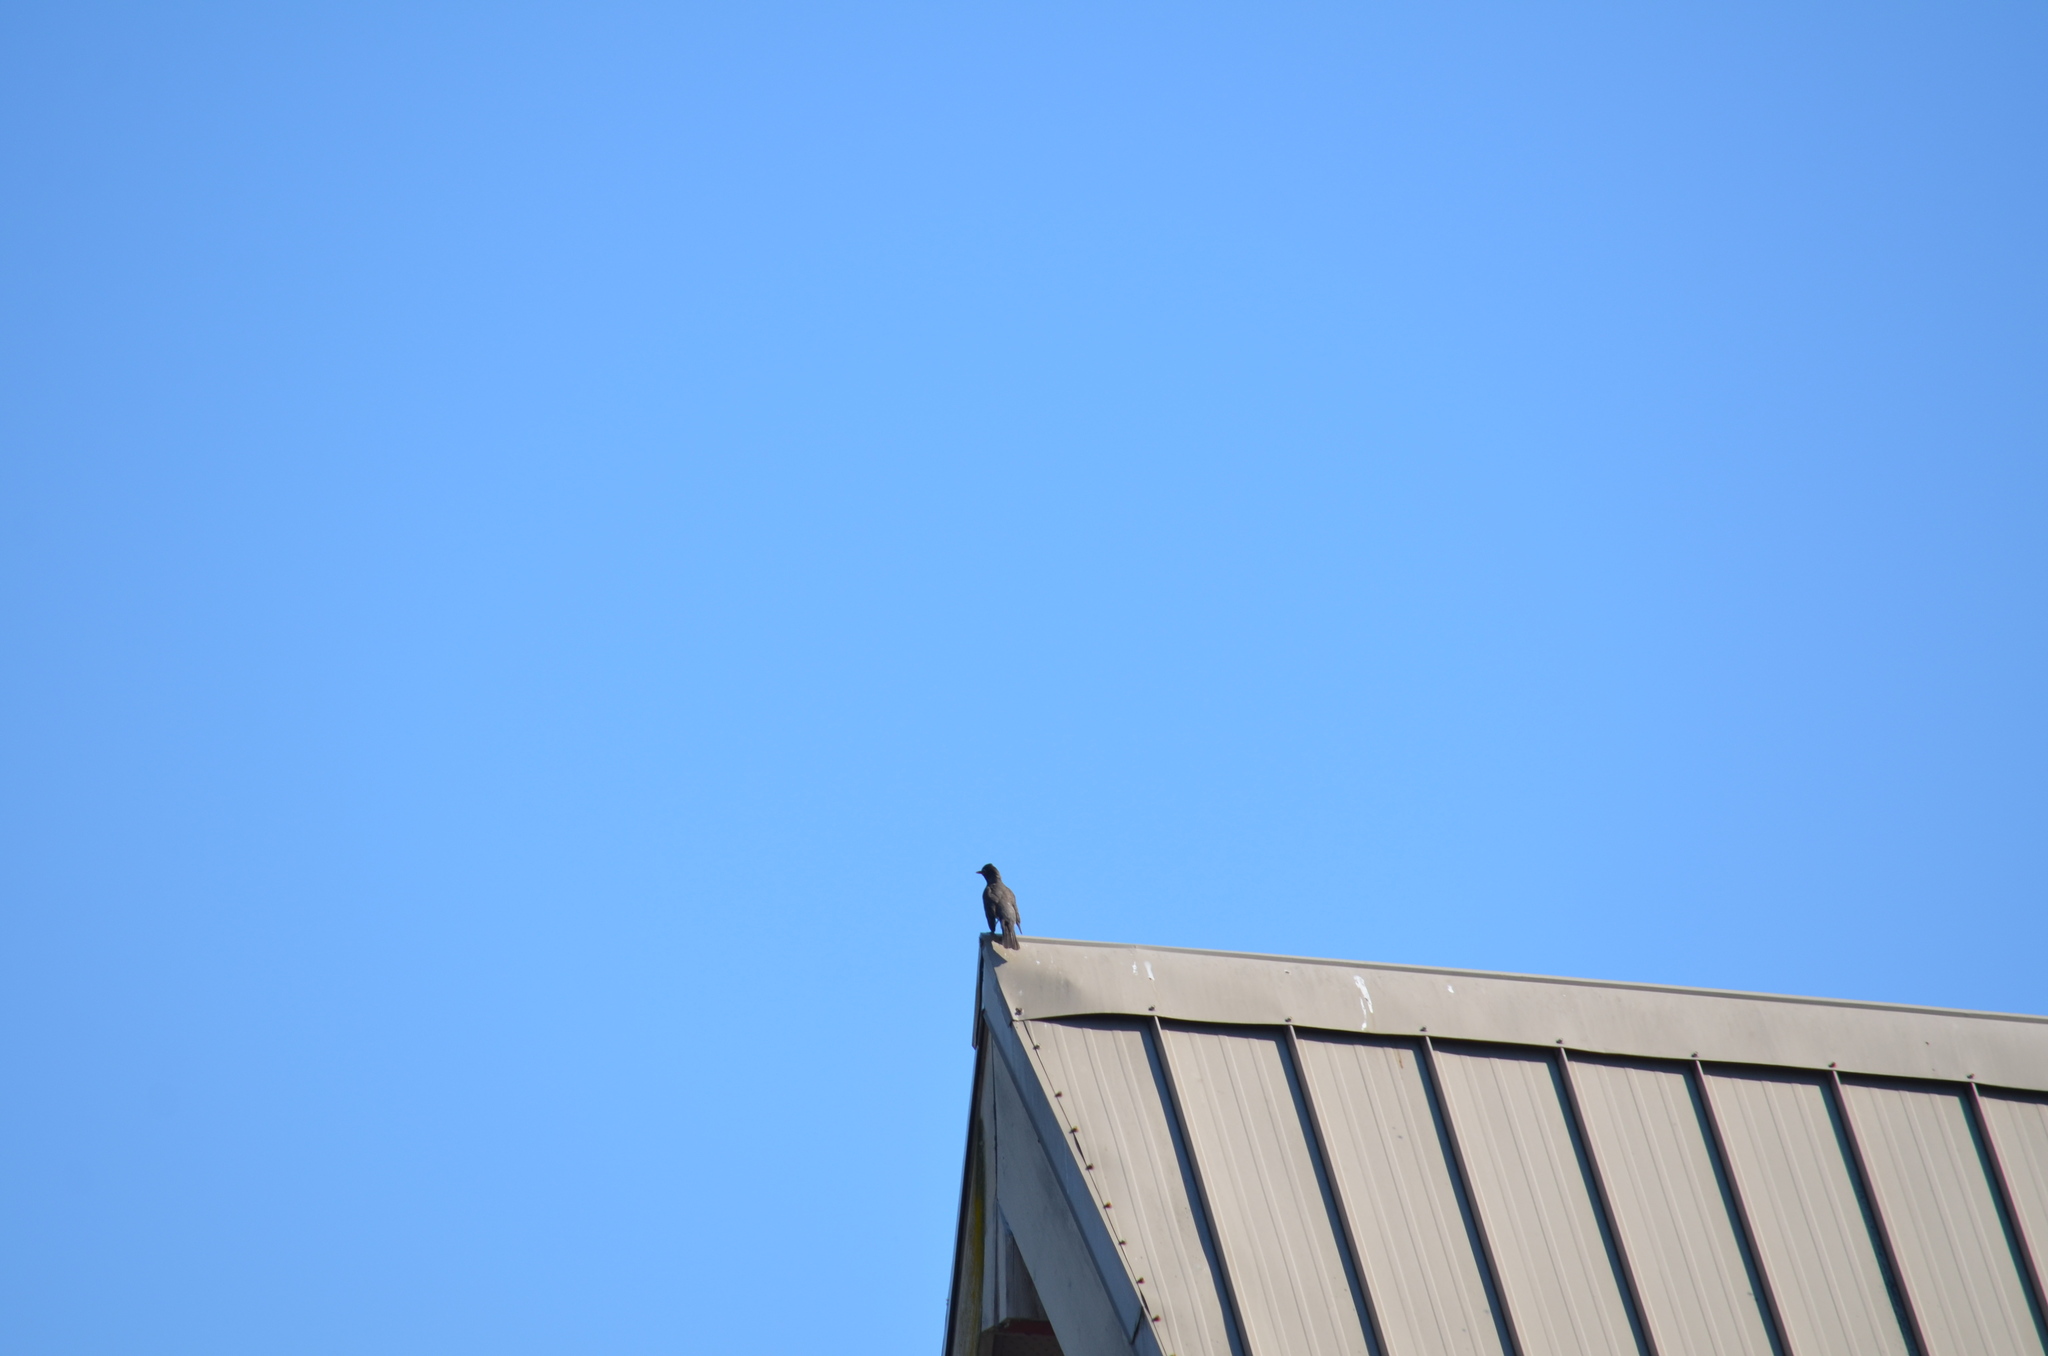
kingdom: Animalia
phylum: Chordata
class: Aves
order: Passeriformes
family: Turdidae
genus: Turdus
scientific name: Turdus migratorius
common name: American robin
